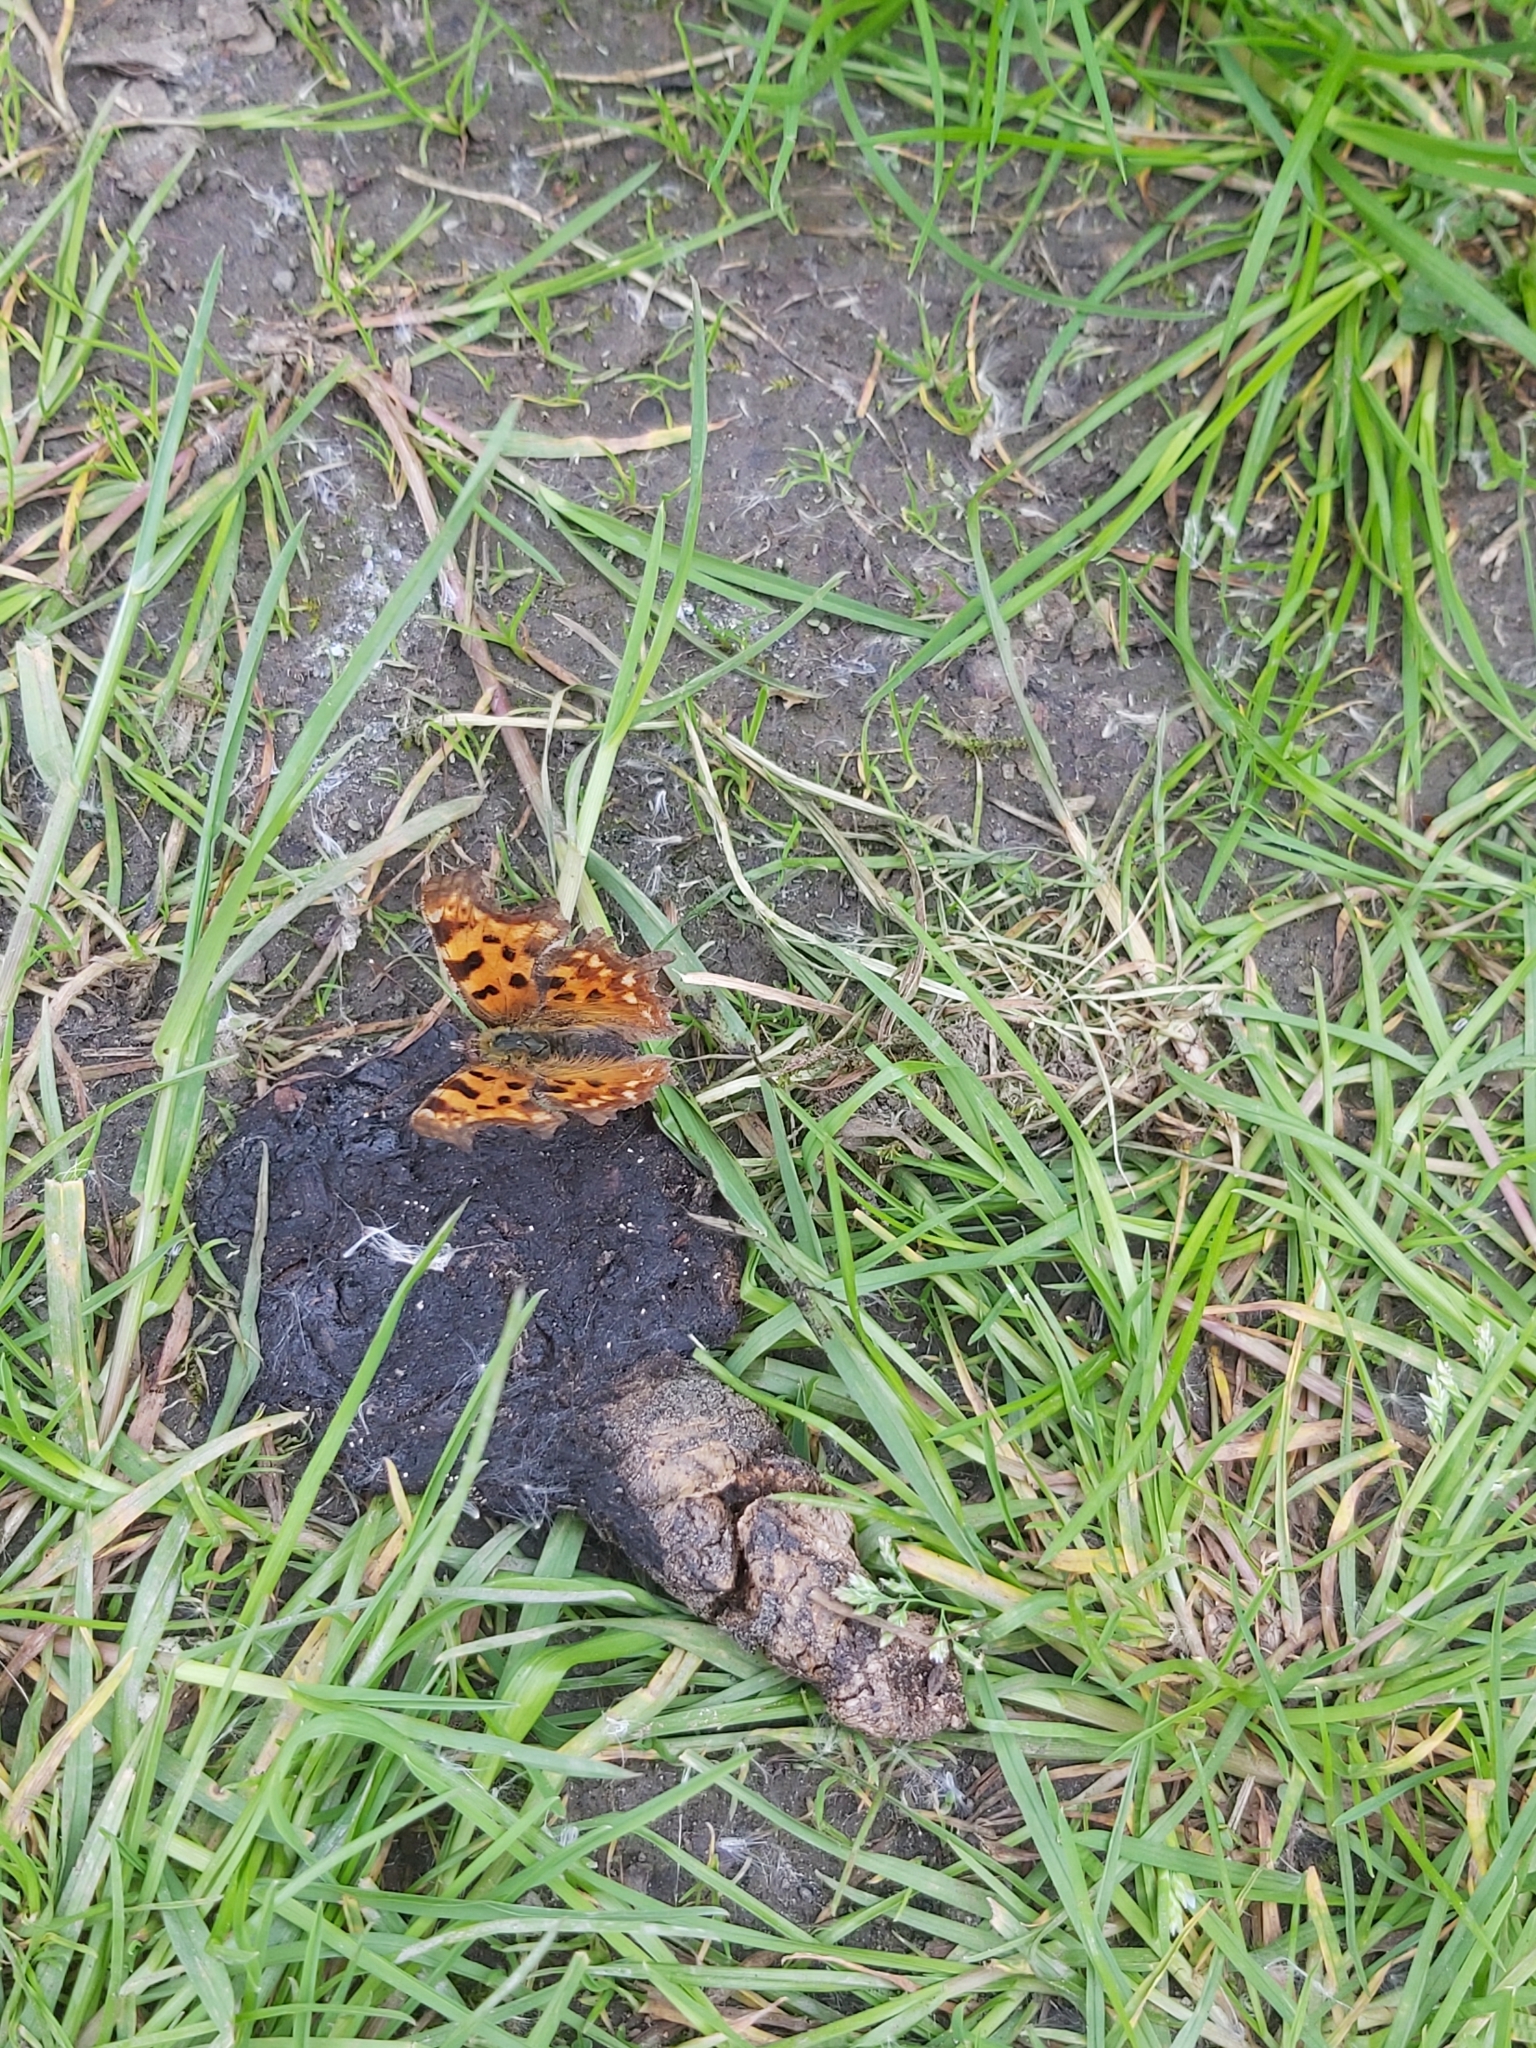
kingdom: Animalia
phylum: Arthropoda
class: Insecta
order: Lepidoptera
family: Nymphalidae
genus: Polygonia
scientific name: Polygonia c-album
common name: Comma
